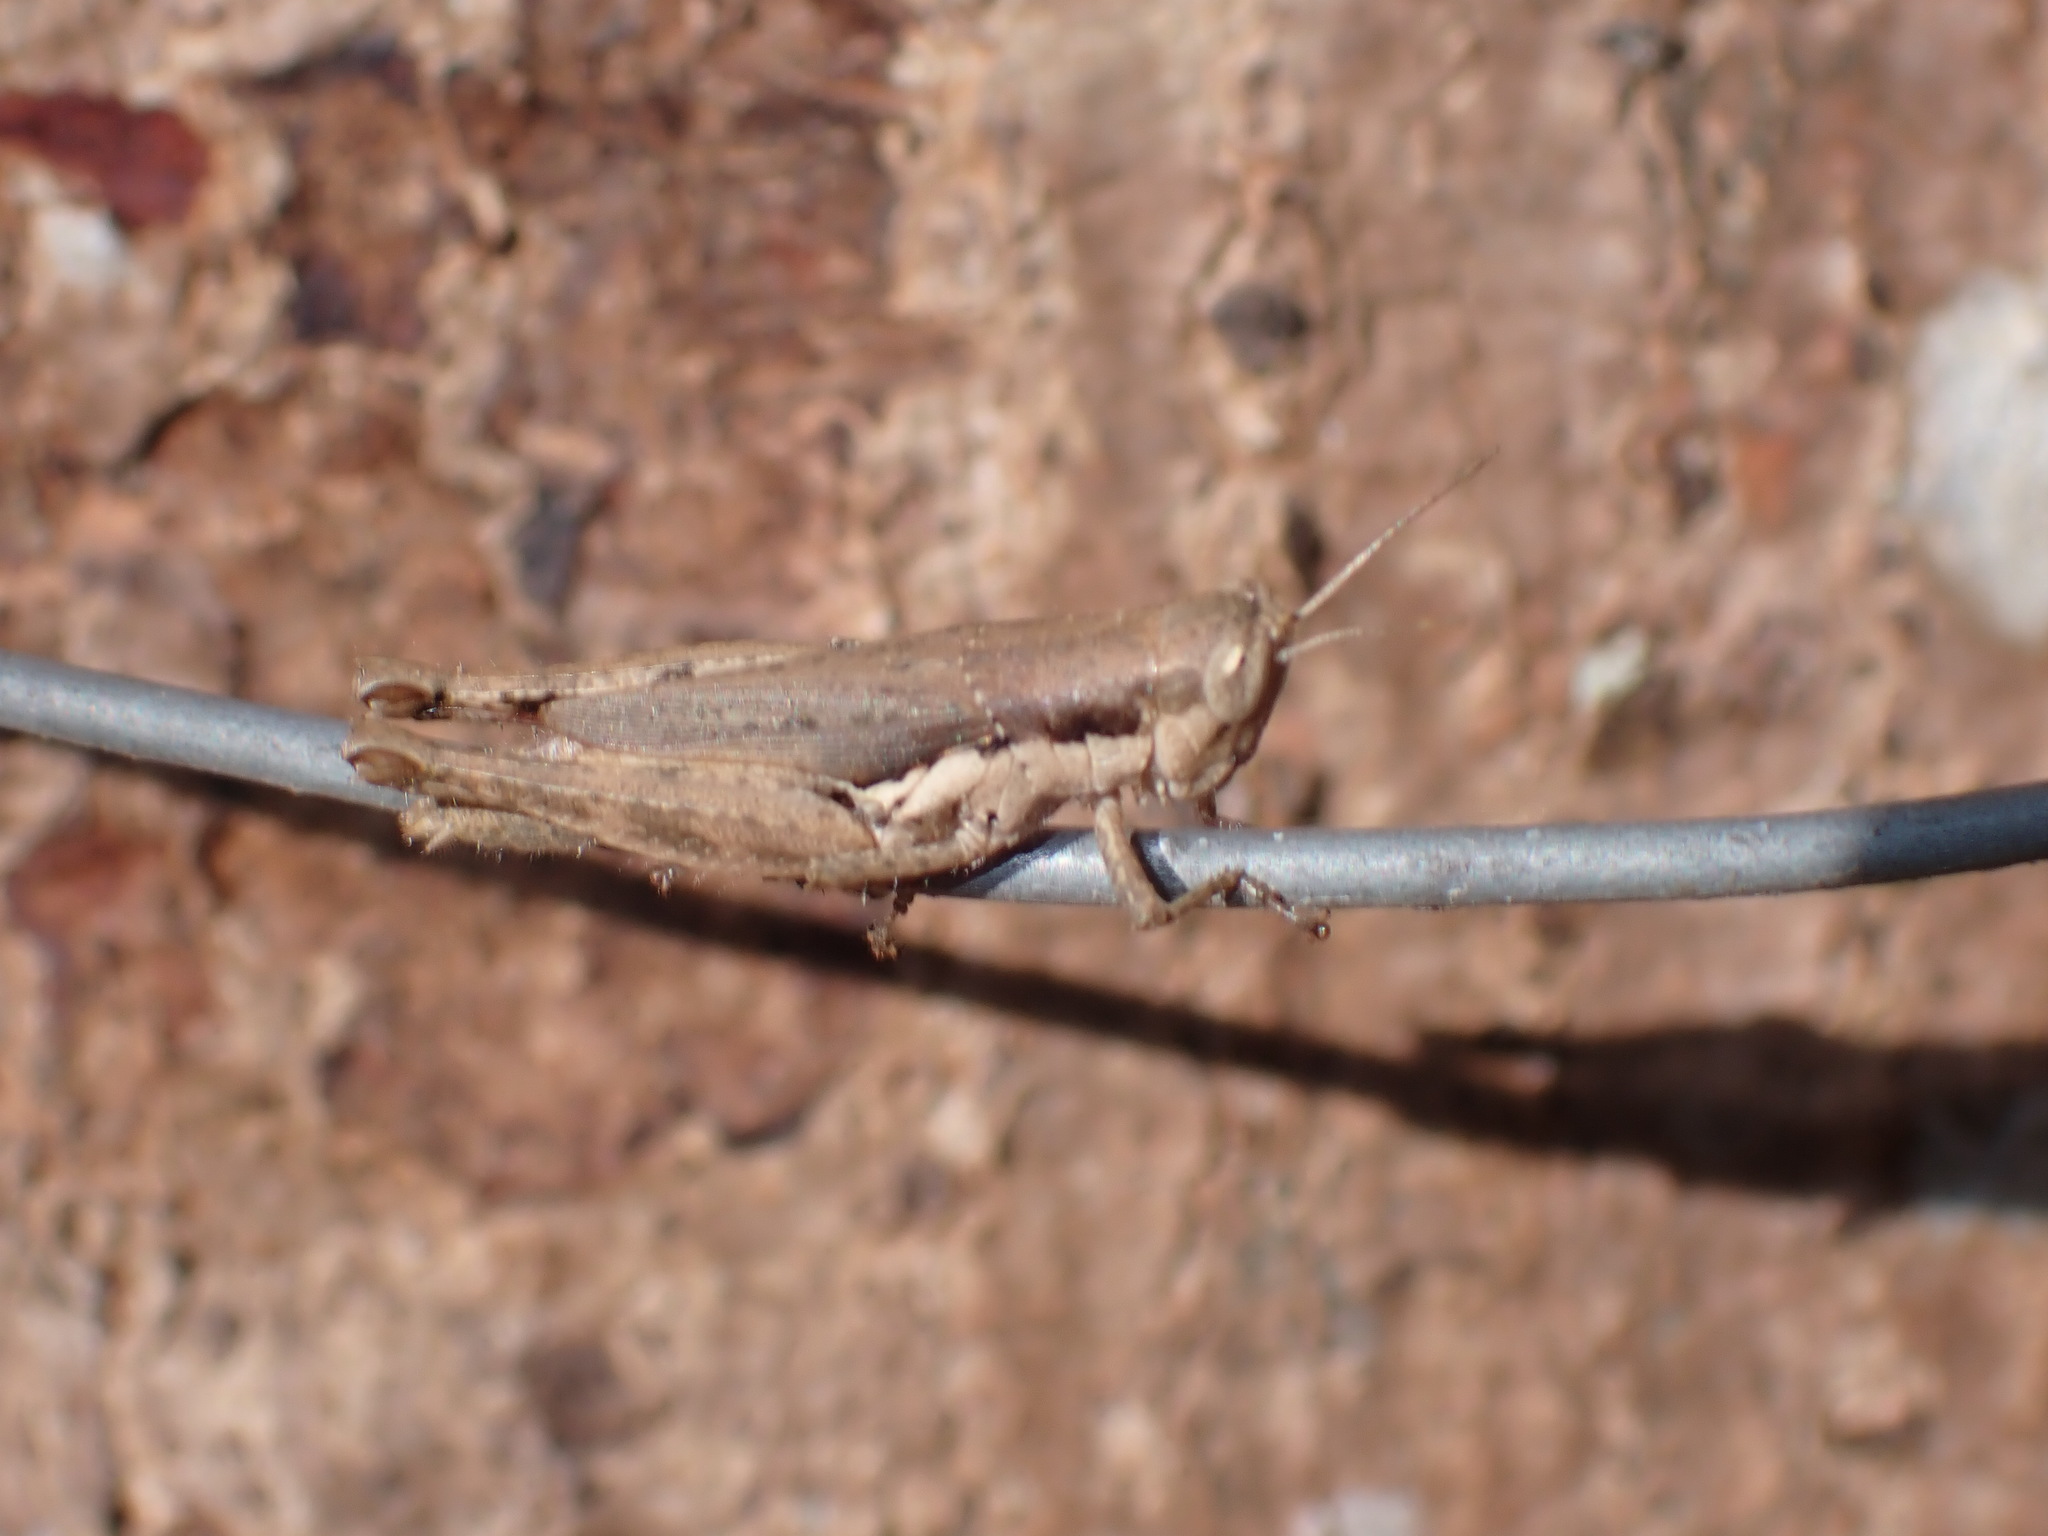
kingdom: Animalia
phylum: Arthropoda
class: Insecta
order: Orthoptera
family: Acrididae
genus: Pseudoxya
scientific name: Pseudoxya diminuta
